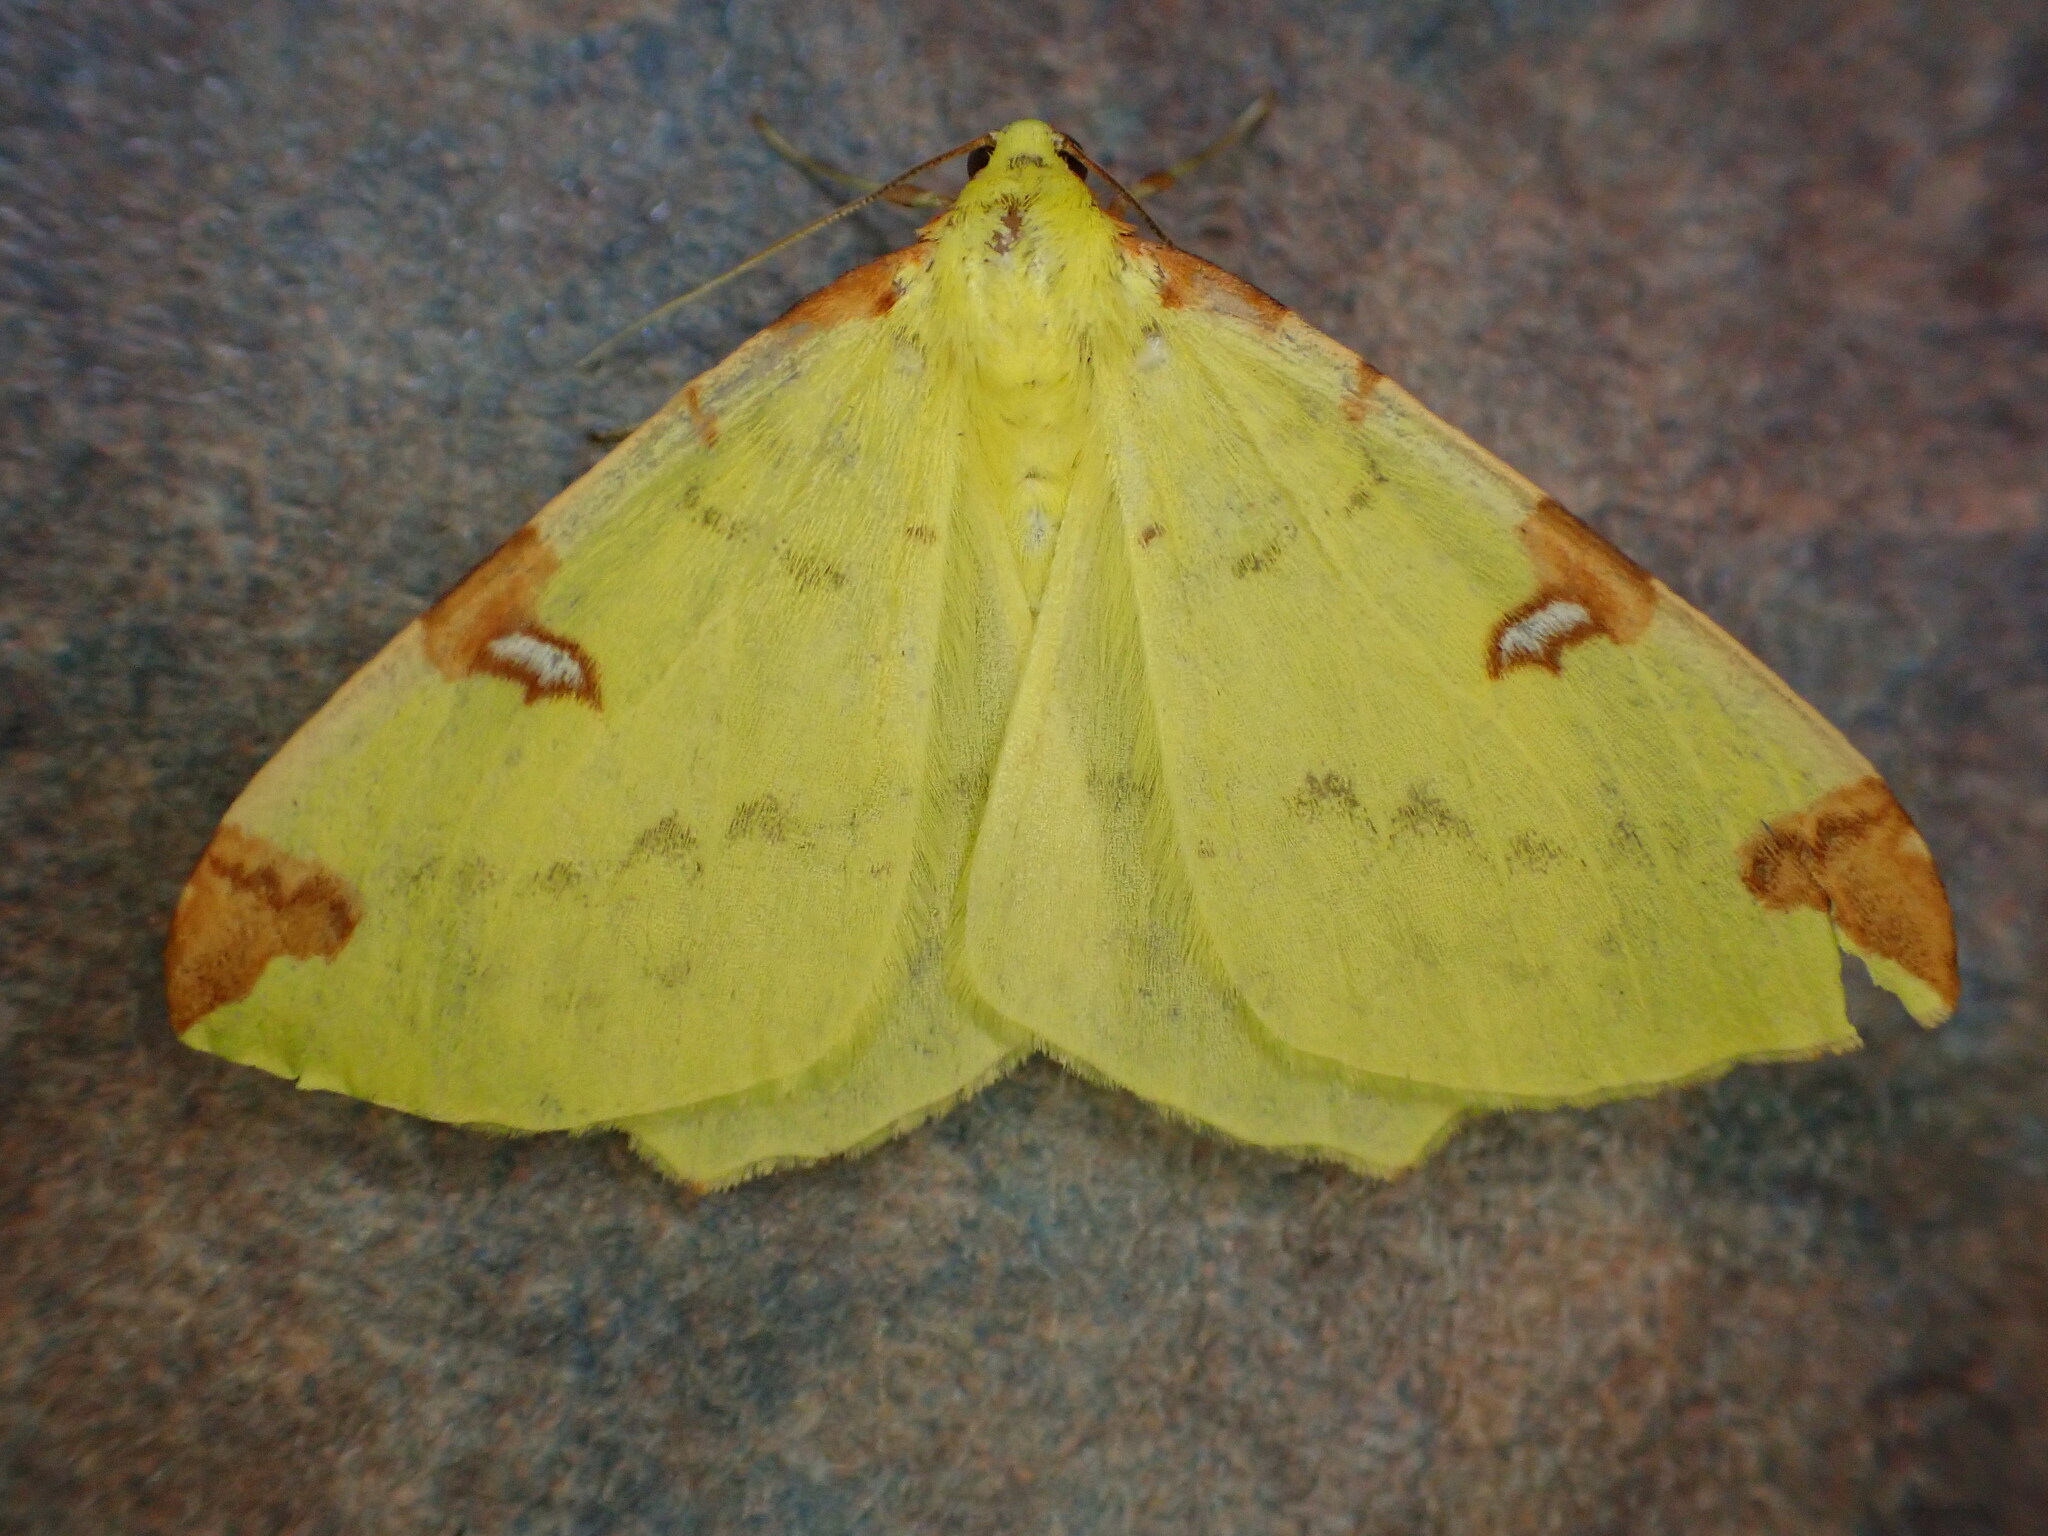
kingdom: Animalia
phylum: Arthropoda
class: Insecta
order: Lepidoptera
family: Geometridae
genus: Opisthograptis
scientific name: Opisthograptis luteolata
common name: Brimstone moth
